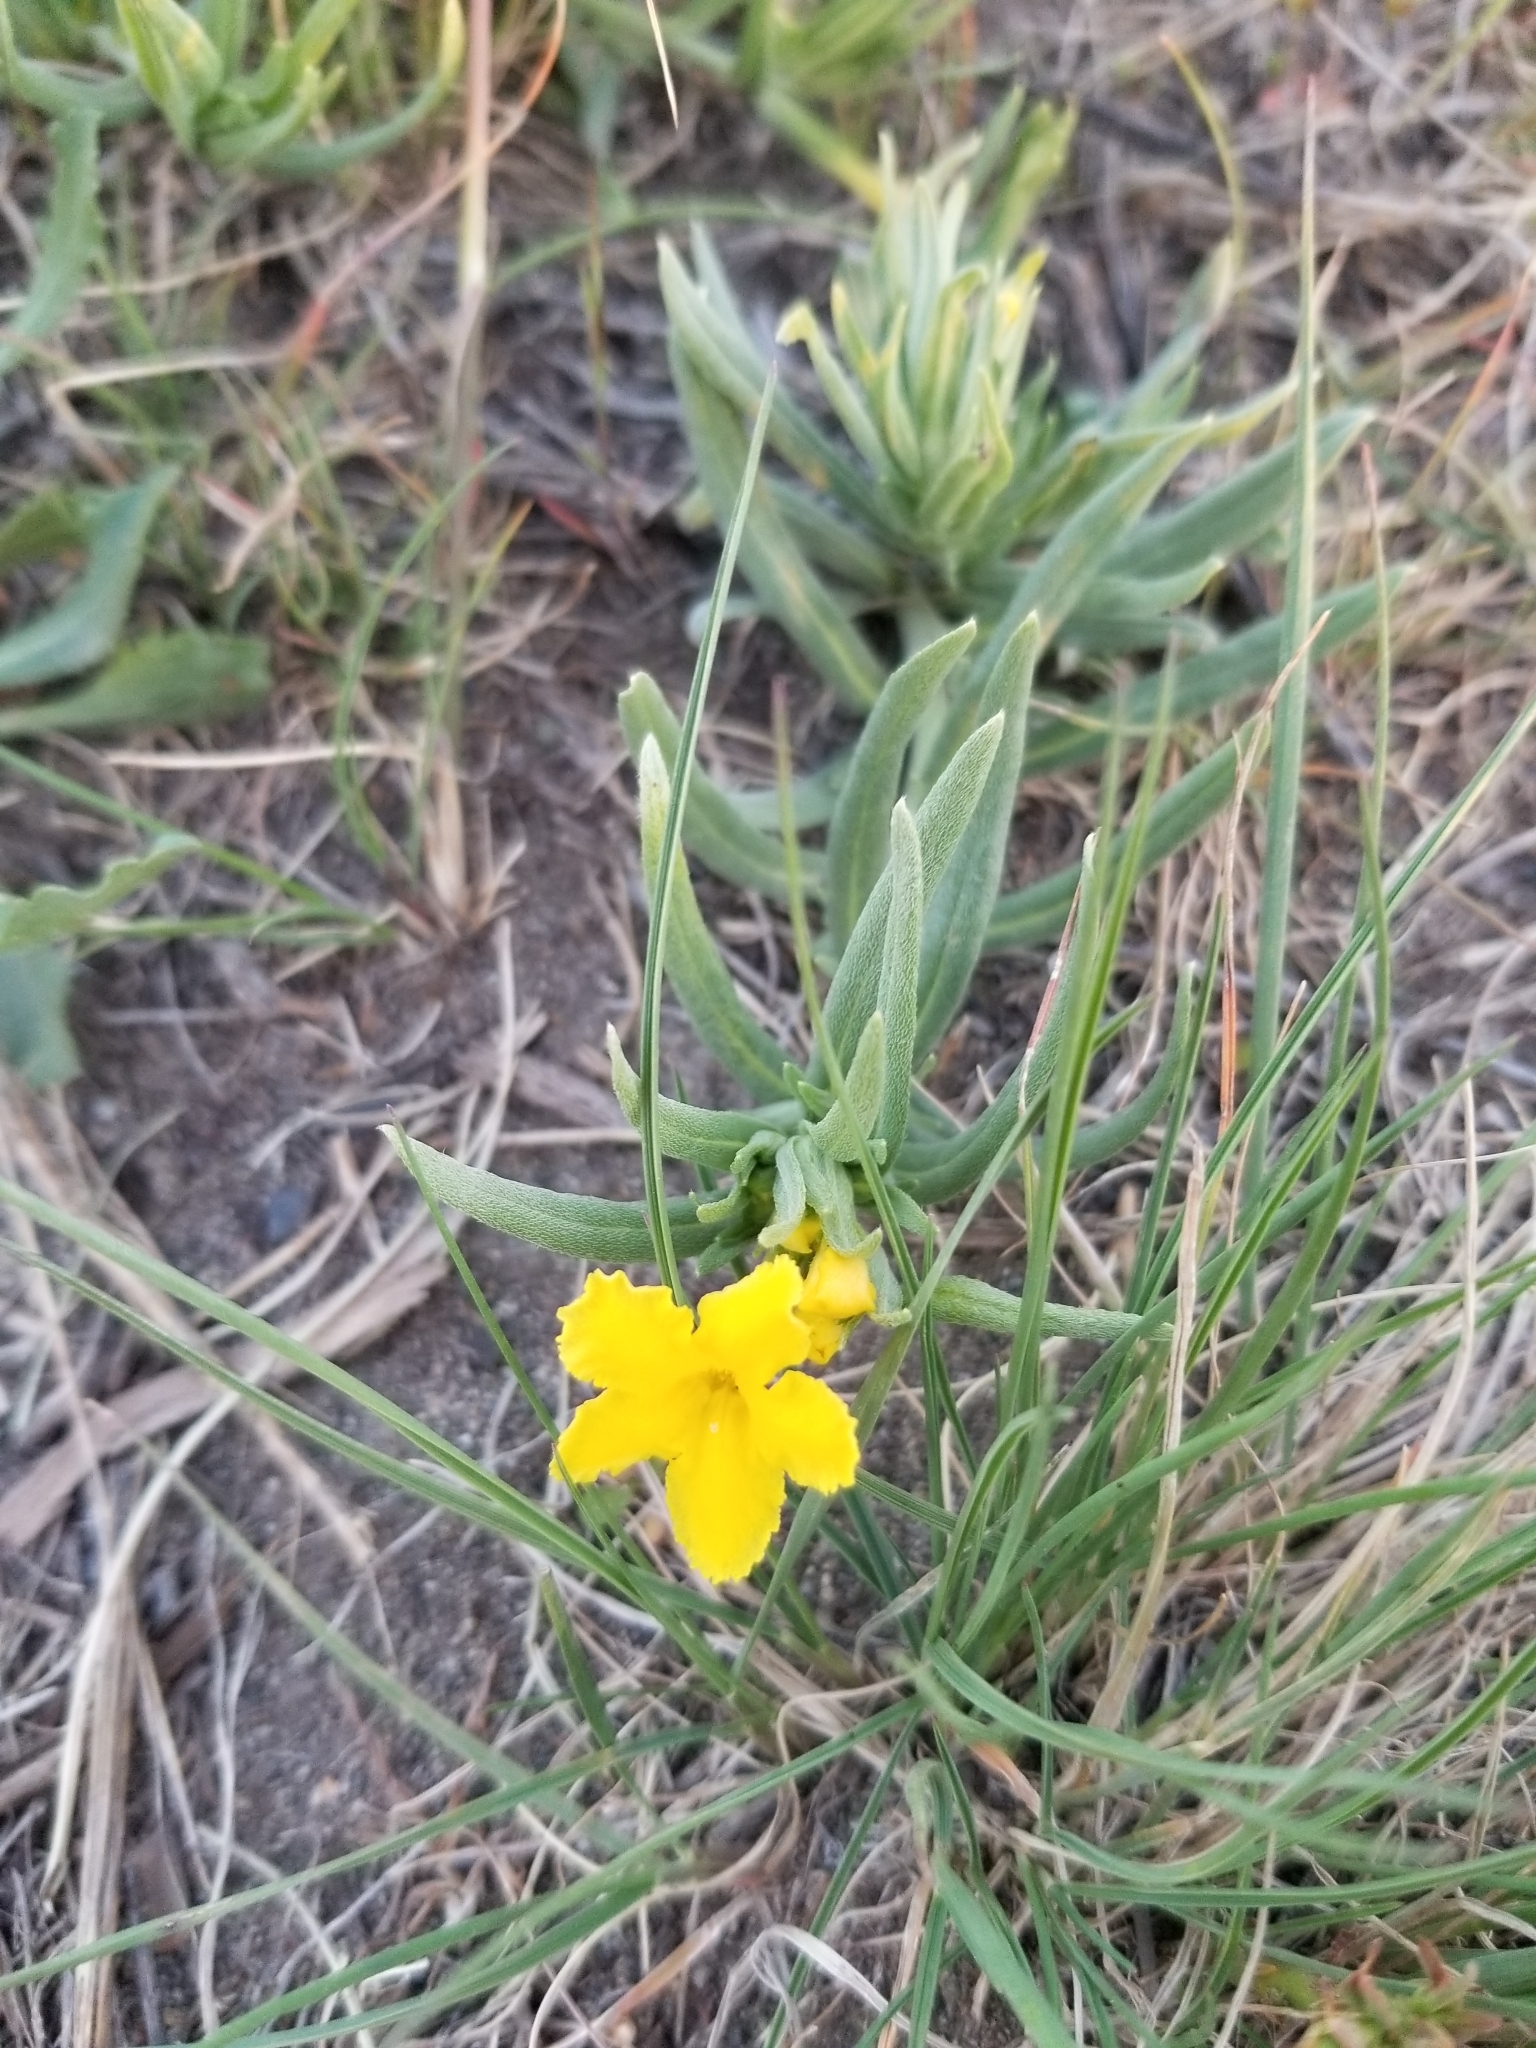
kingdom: Plantae
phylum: Tracheophyta
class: Magnoliopsida
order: Boraginales
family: Boraginaceae
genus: Lithospermum
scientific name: Lithospermum incisum
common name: Fringed gromwell
